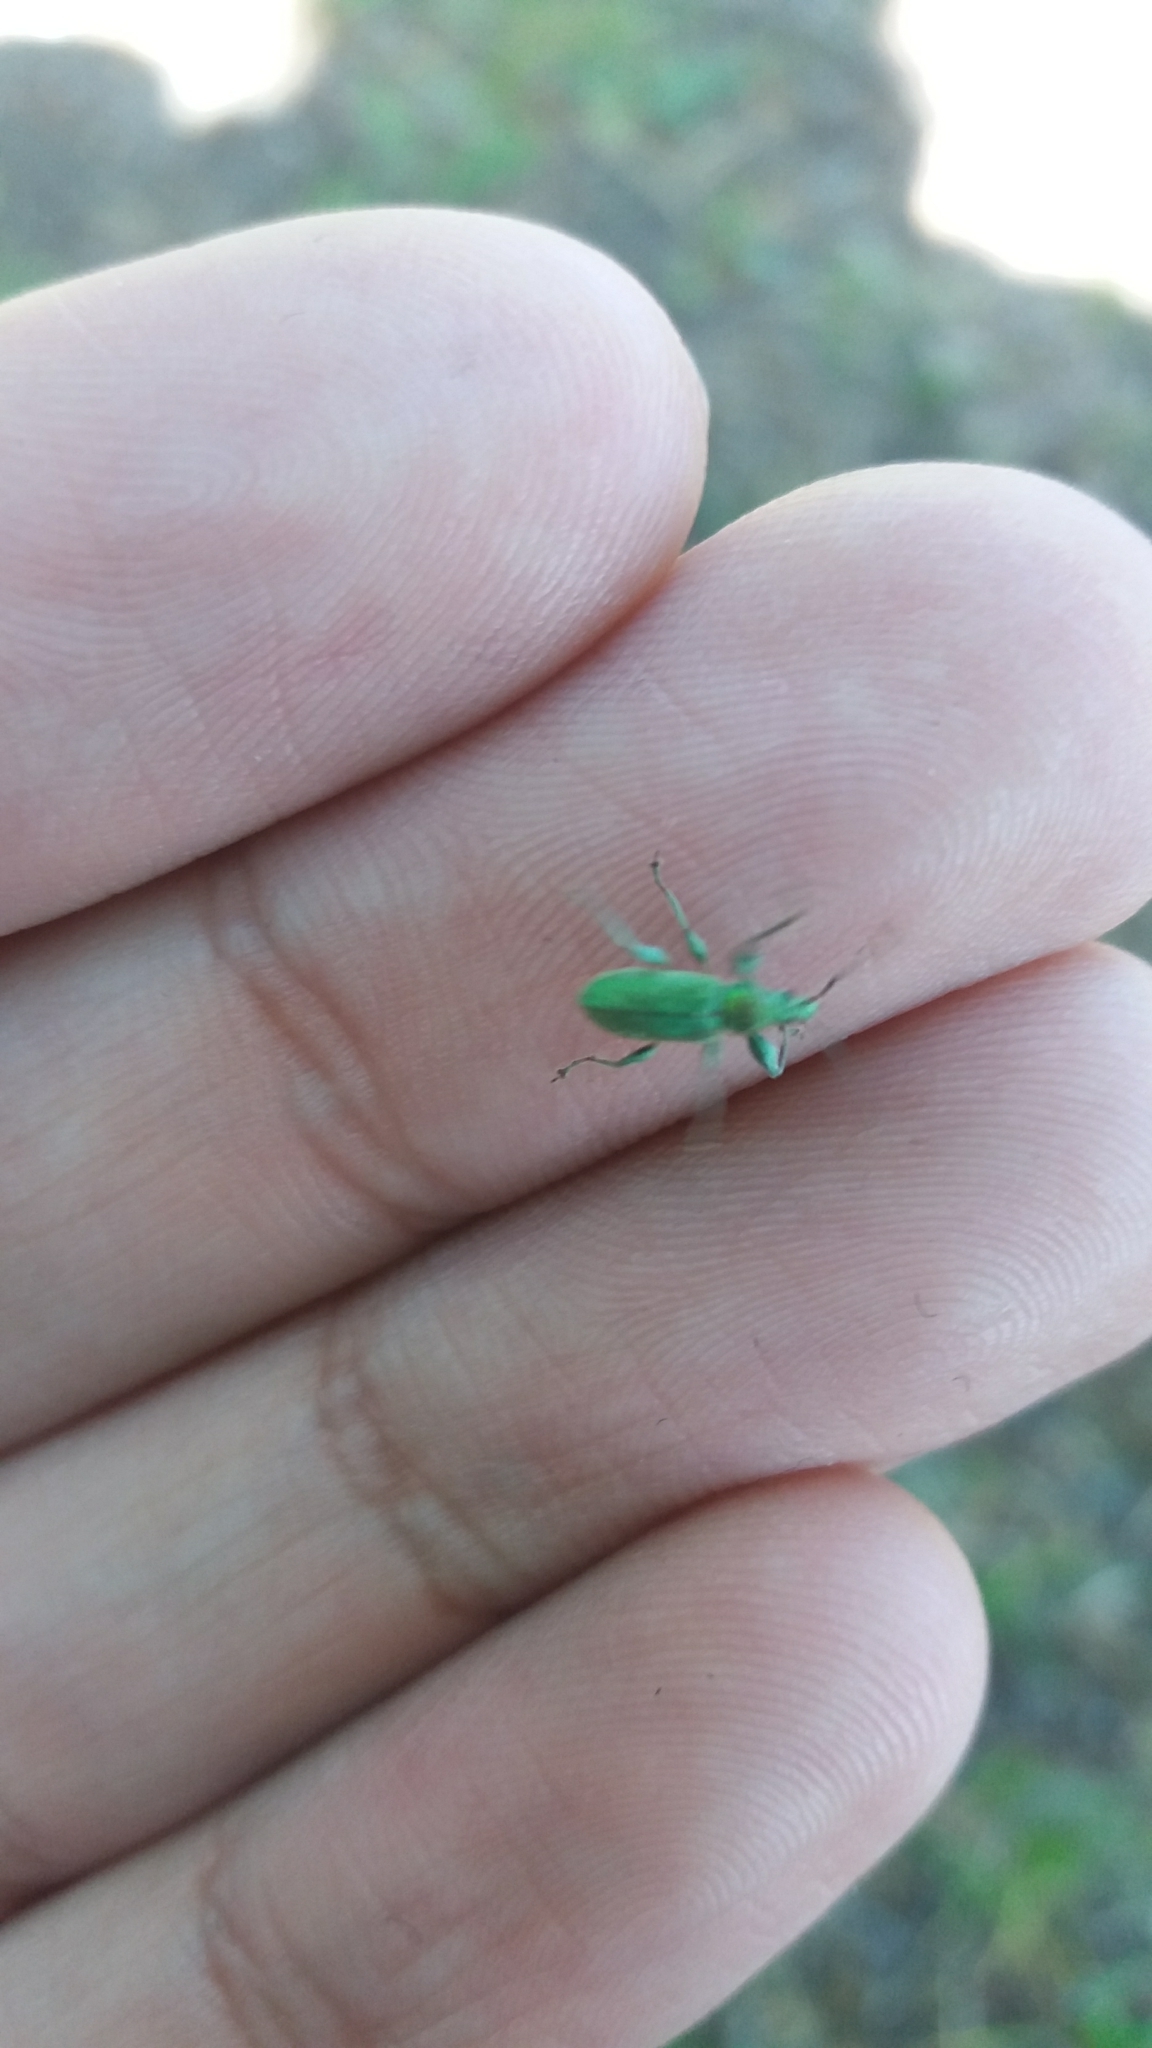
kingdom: Animalia
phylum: Arthropoda
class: Insecta
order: Coleoptera
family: Curculionidae
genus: Phyllobius
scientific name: Phyllobius arborator
